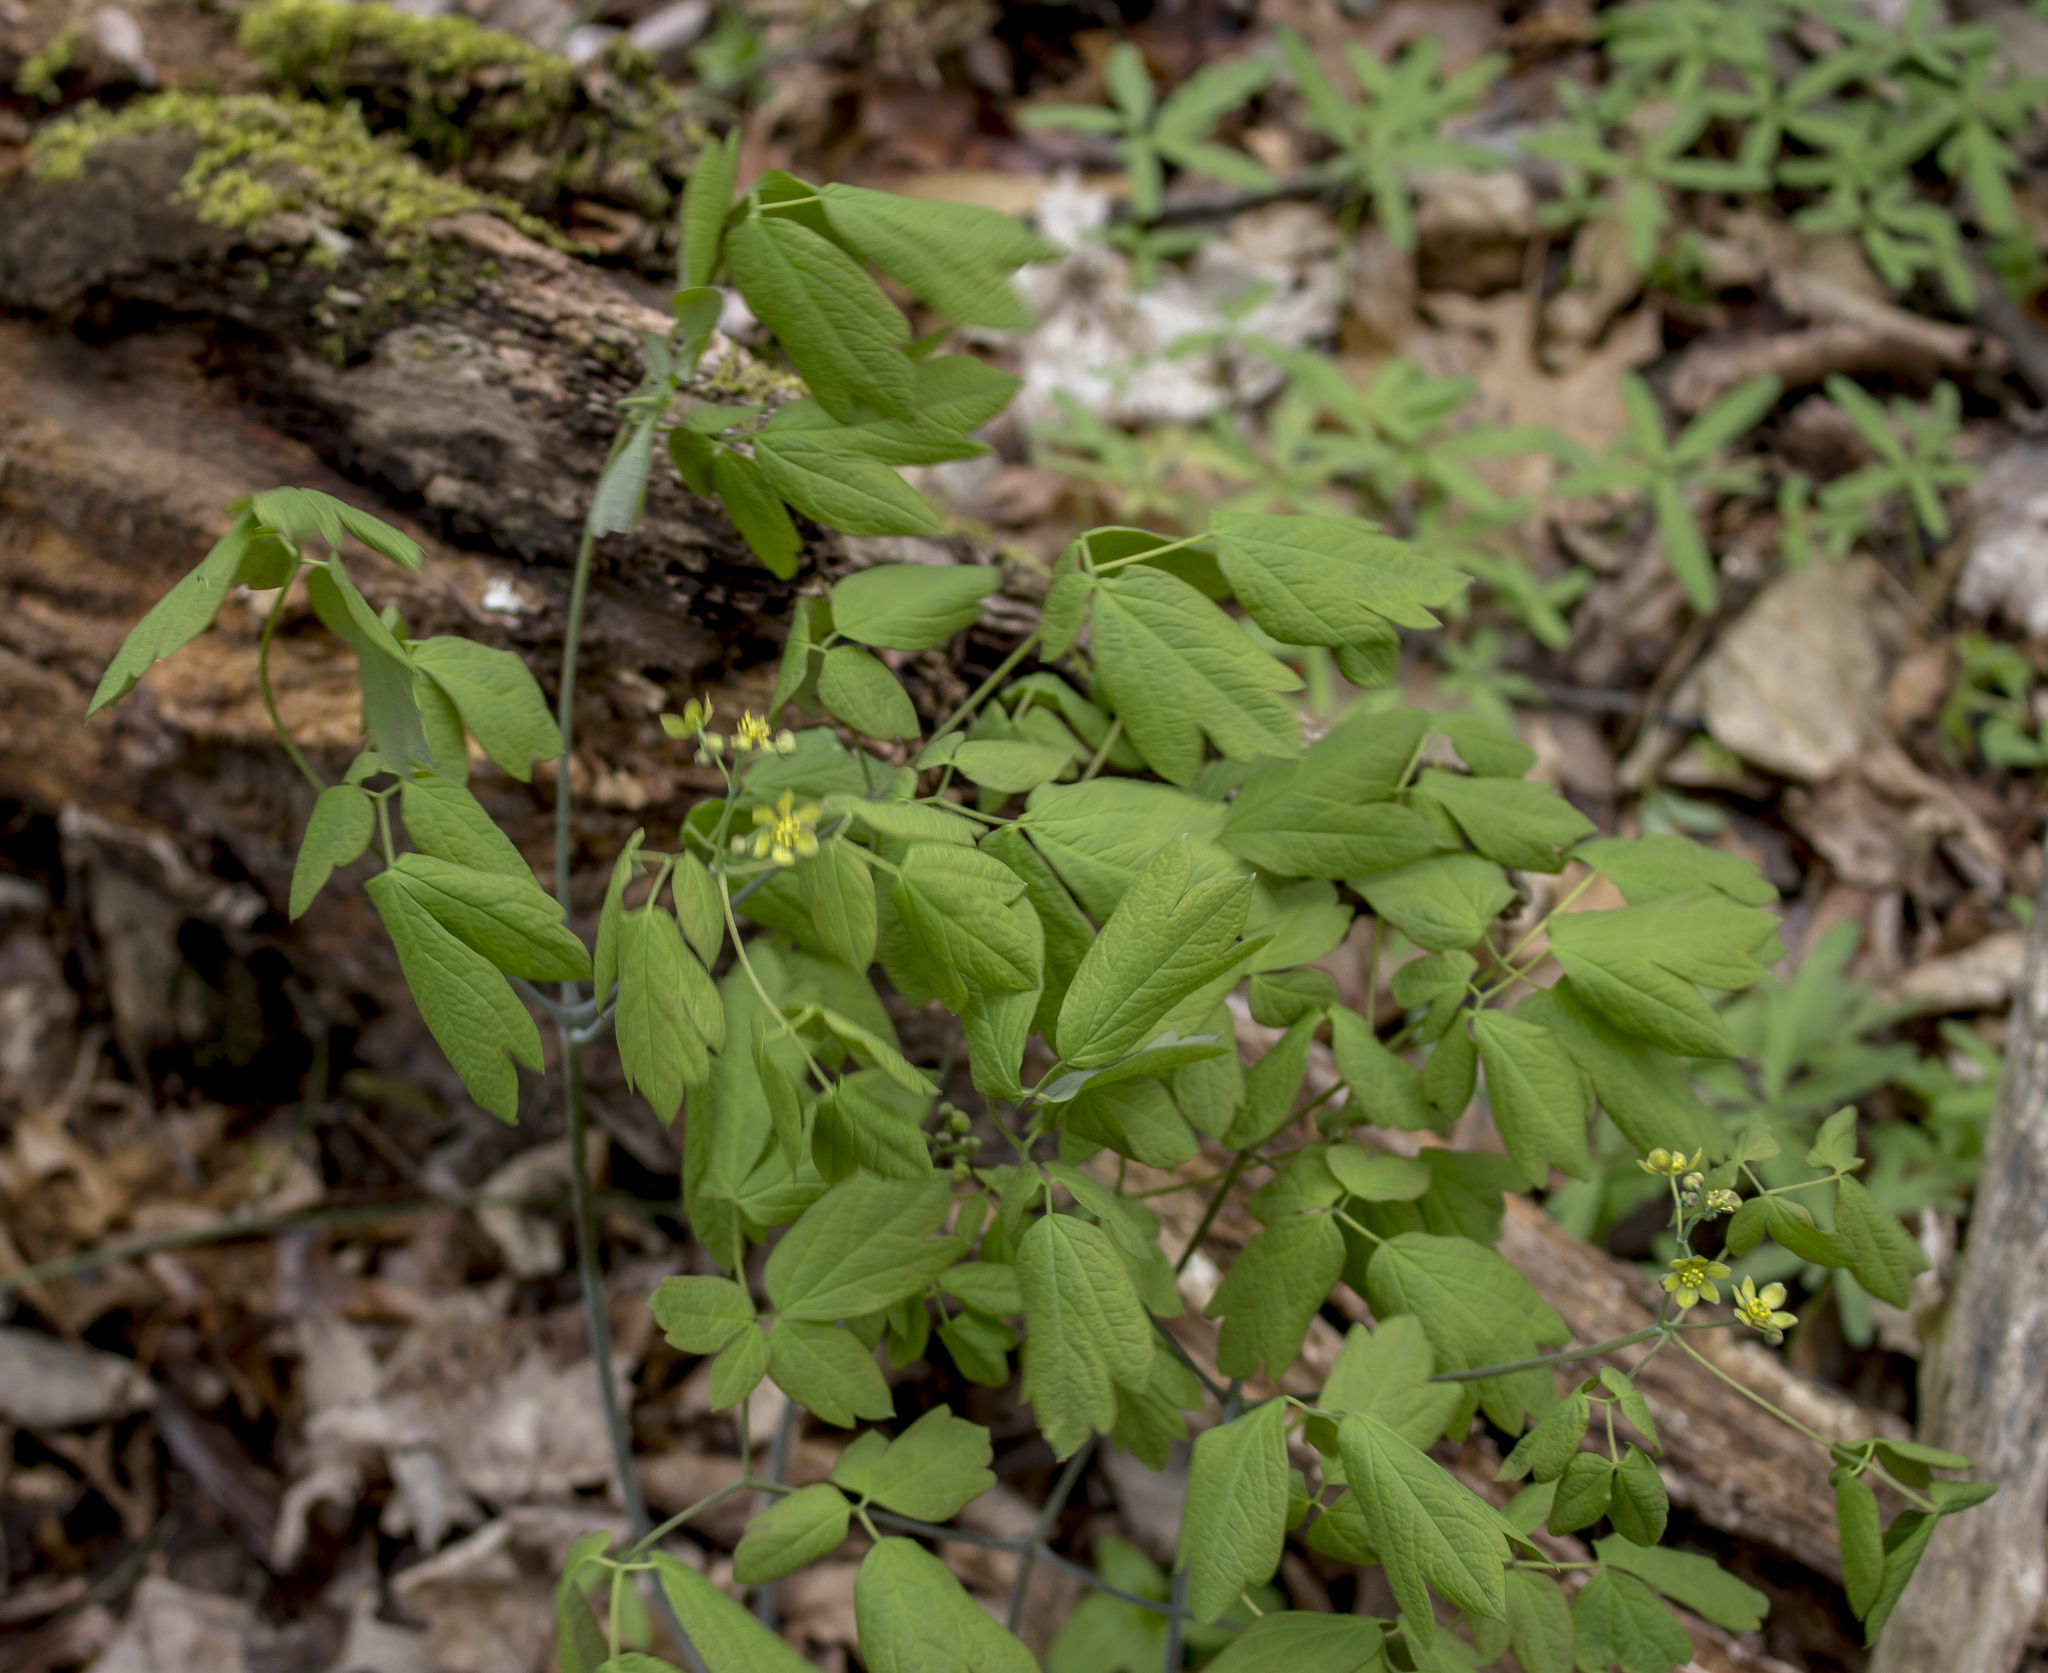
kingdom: Plantae
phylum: Tracheophyta
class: Magnoliopsida
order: Ranunculales
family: Berberidaceae
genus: Caulophyllum
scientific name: Caulophyllum thalictroides
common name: Blue cohosh
